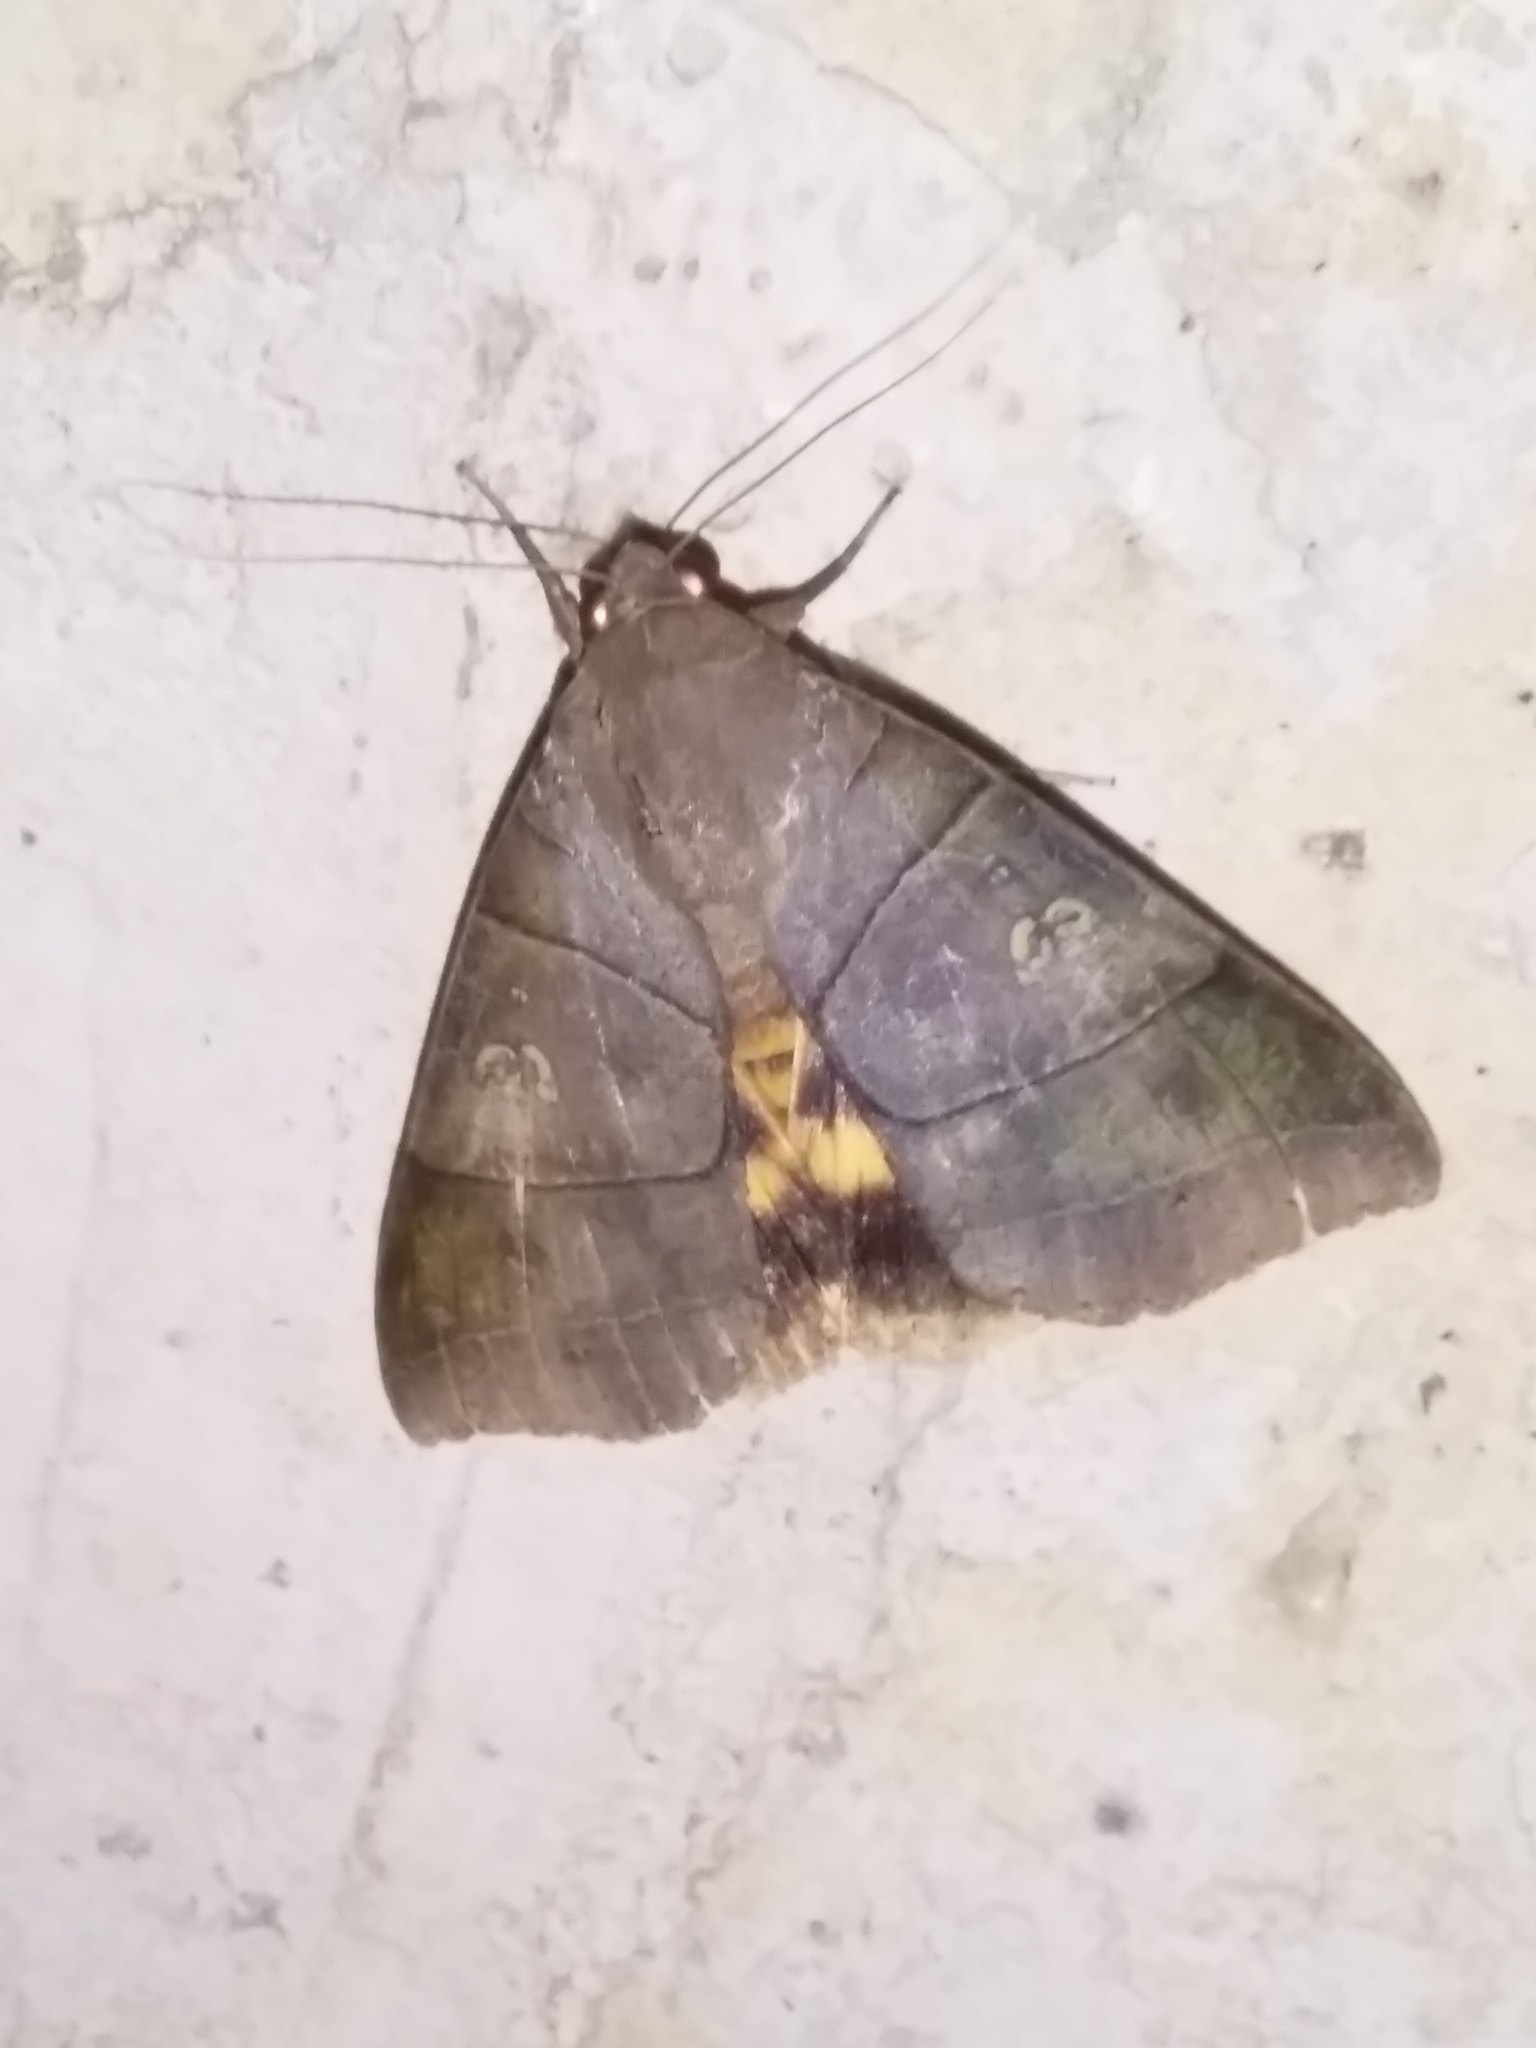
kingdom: Animalia
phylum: Arthropoda
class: Insecta
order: Lepidoptera
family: Erebidae
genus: Thyas
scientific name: Thyas coronata
